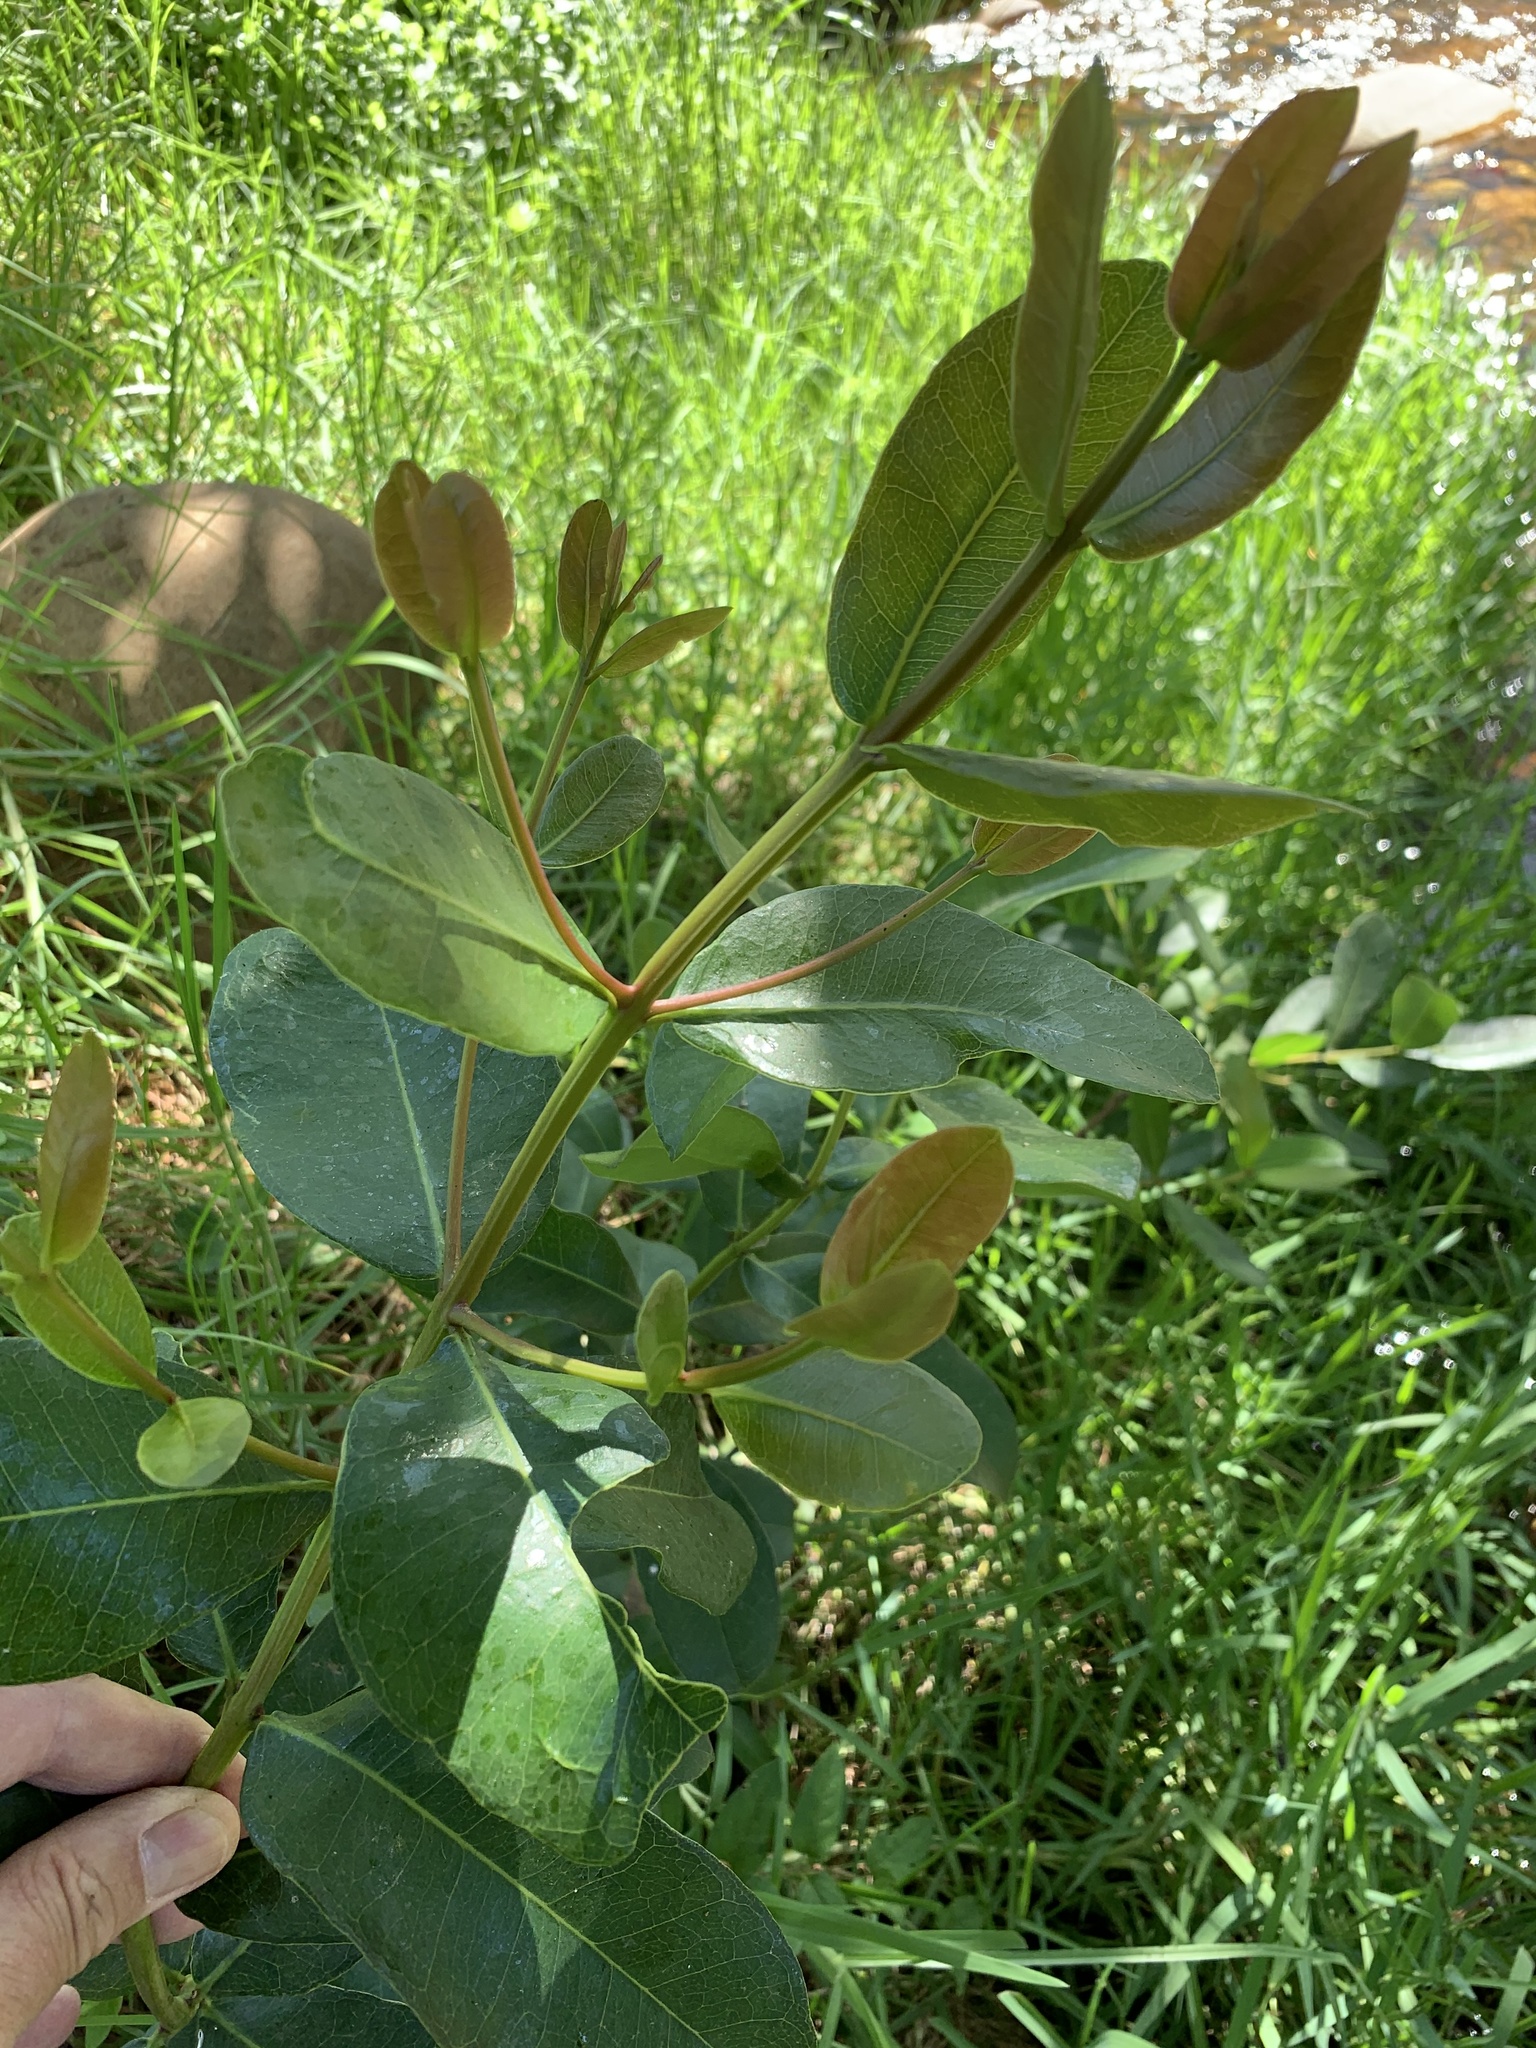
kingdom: Plantae
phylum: Tracheophyta
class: Magnoliopsida
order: Myrtales
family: Myrtaceae
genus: Syzygium
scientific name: Syzygium cordatum
